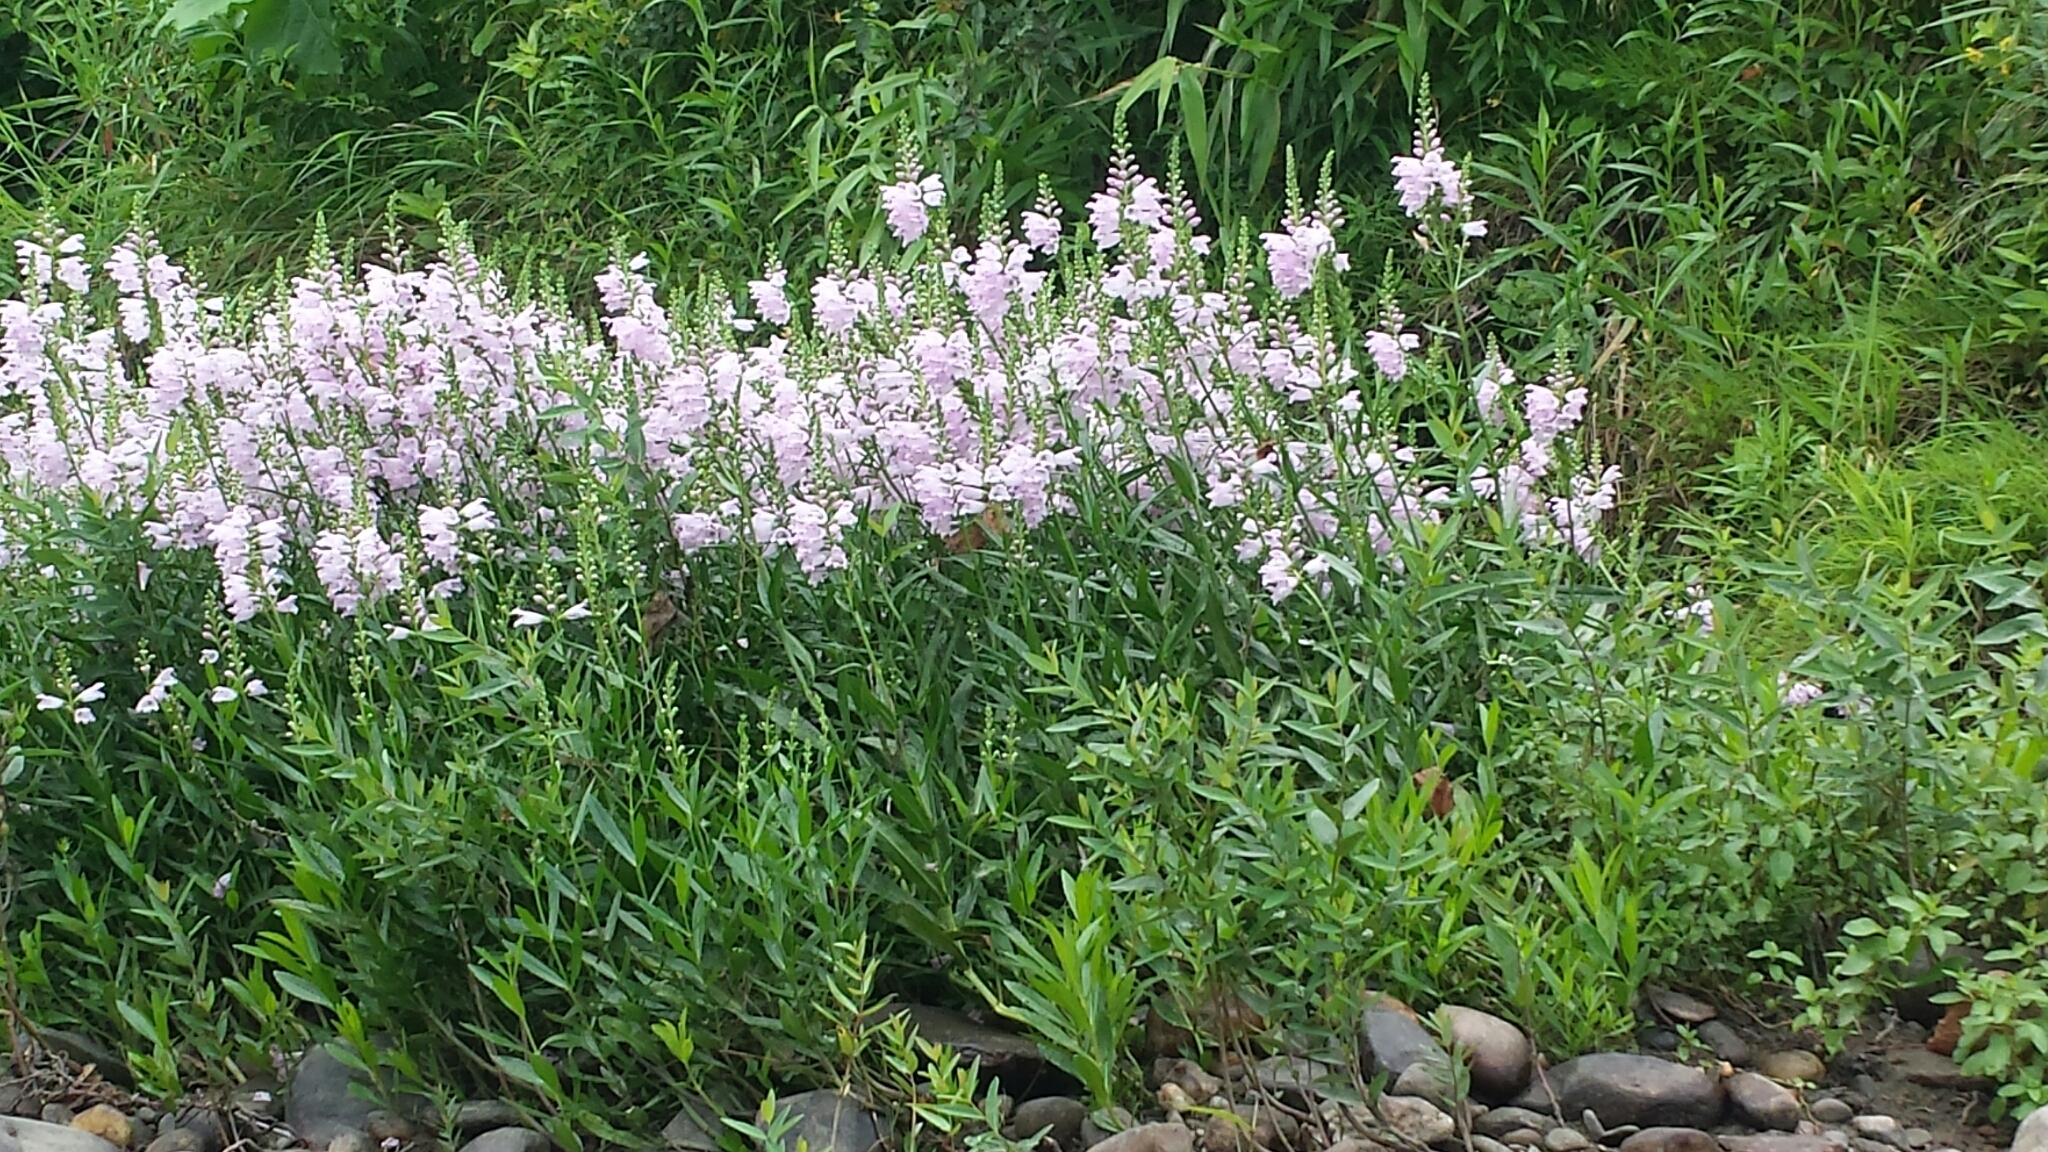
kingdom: Plantae
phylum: Tracheophyta
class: Magnoliopsida
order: Lamiales
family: Lamiaceae
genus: Physostegia
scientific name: Physostegia virginiana
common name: Obedient-plant
